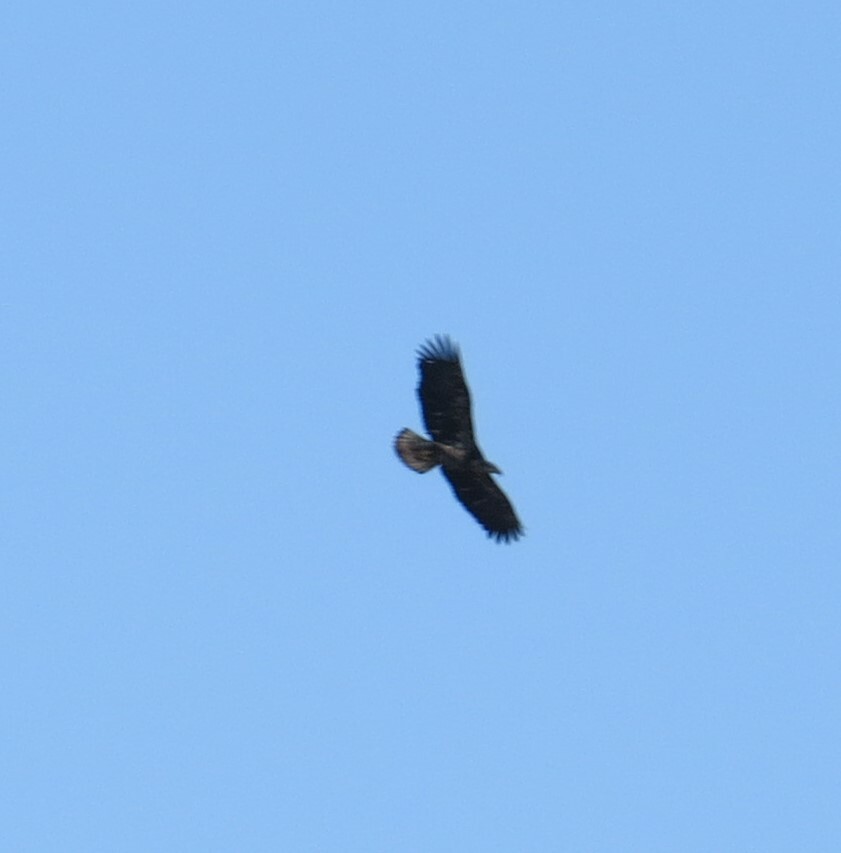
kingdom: Animalia
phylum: Chordata
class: Aves
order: Accipitriformes
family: Accipitridae
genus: Haliaeetus
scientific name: Haliaeetus leucocephalus
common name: Bald eagle
